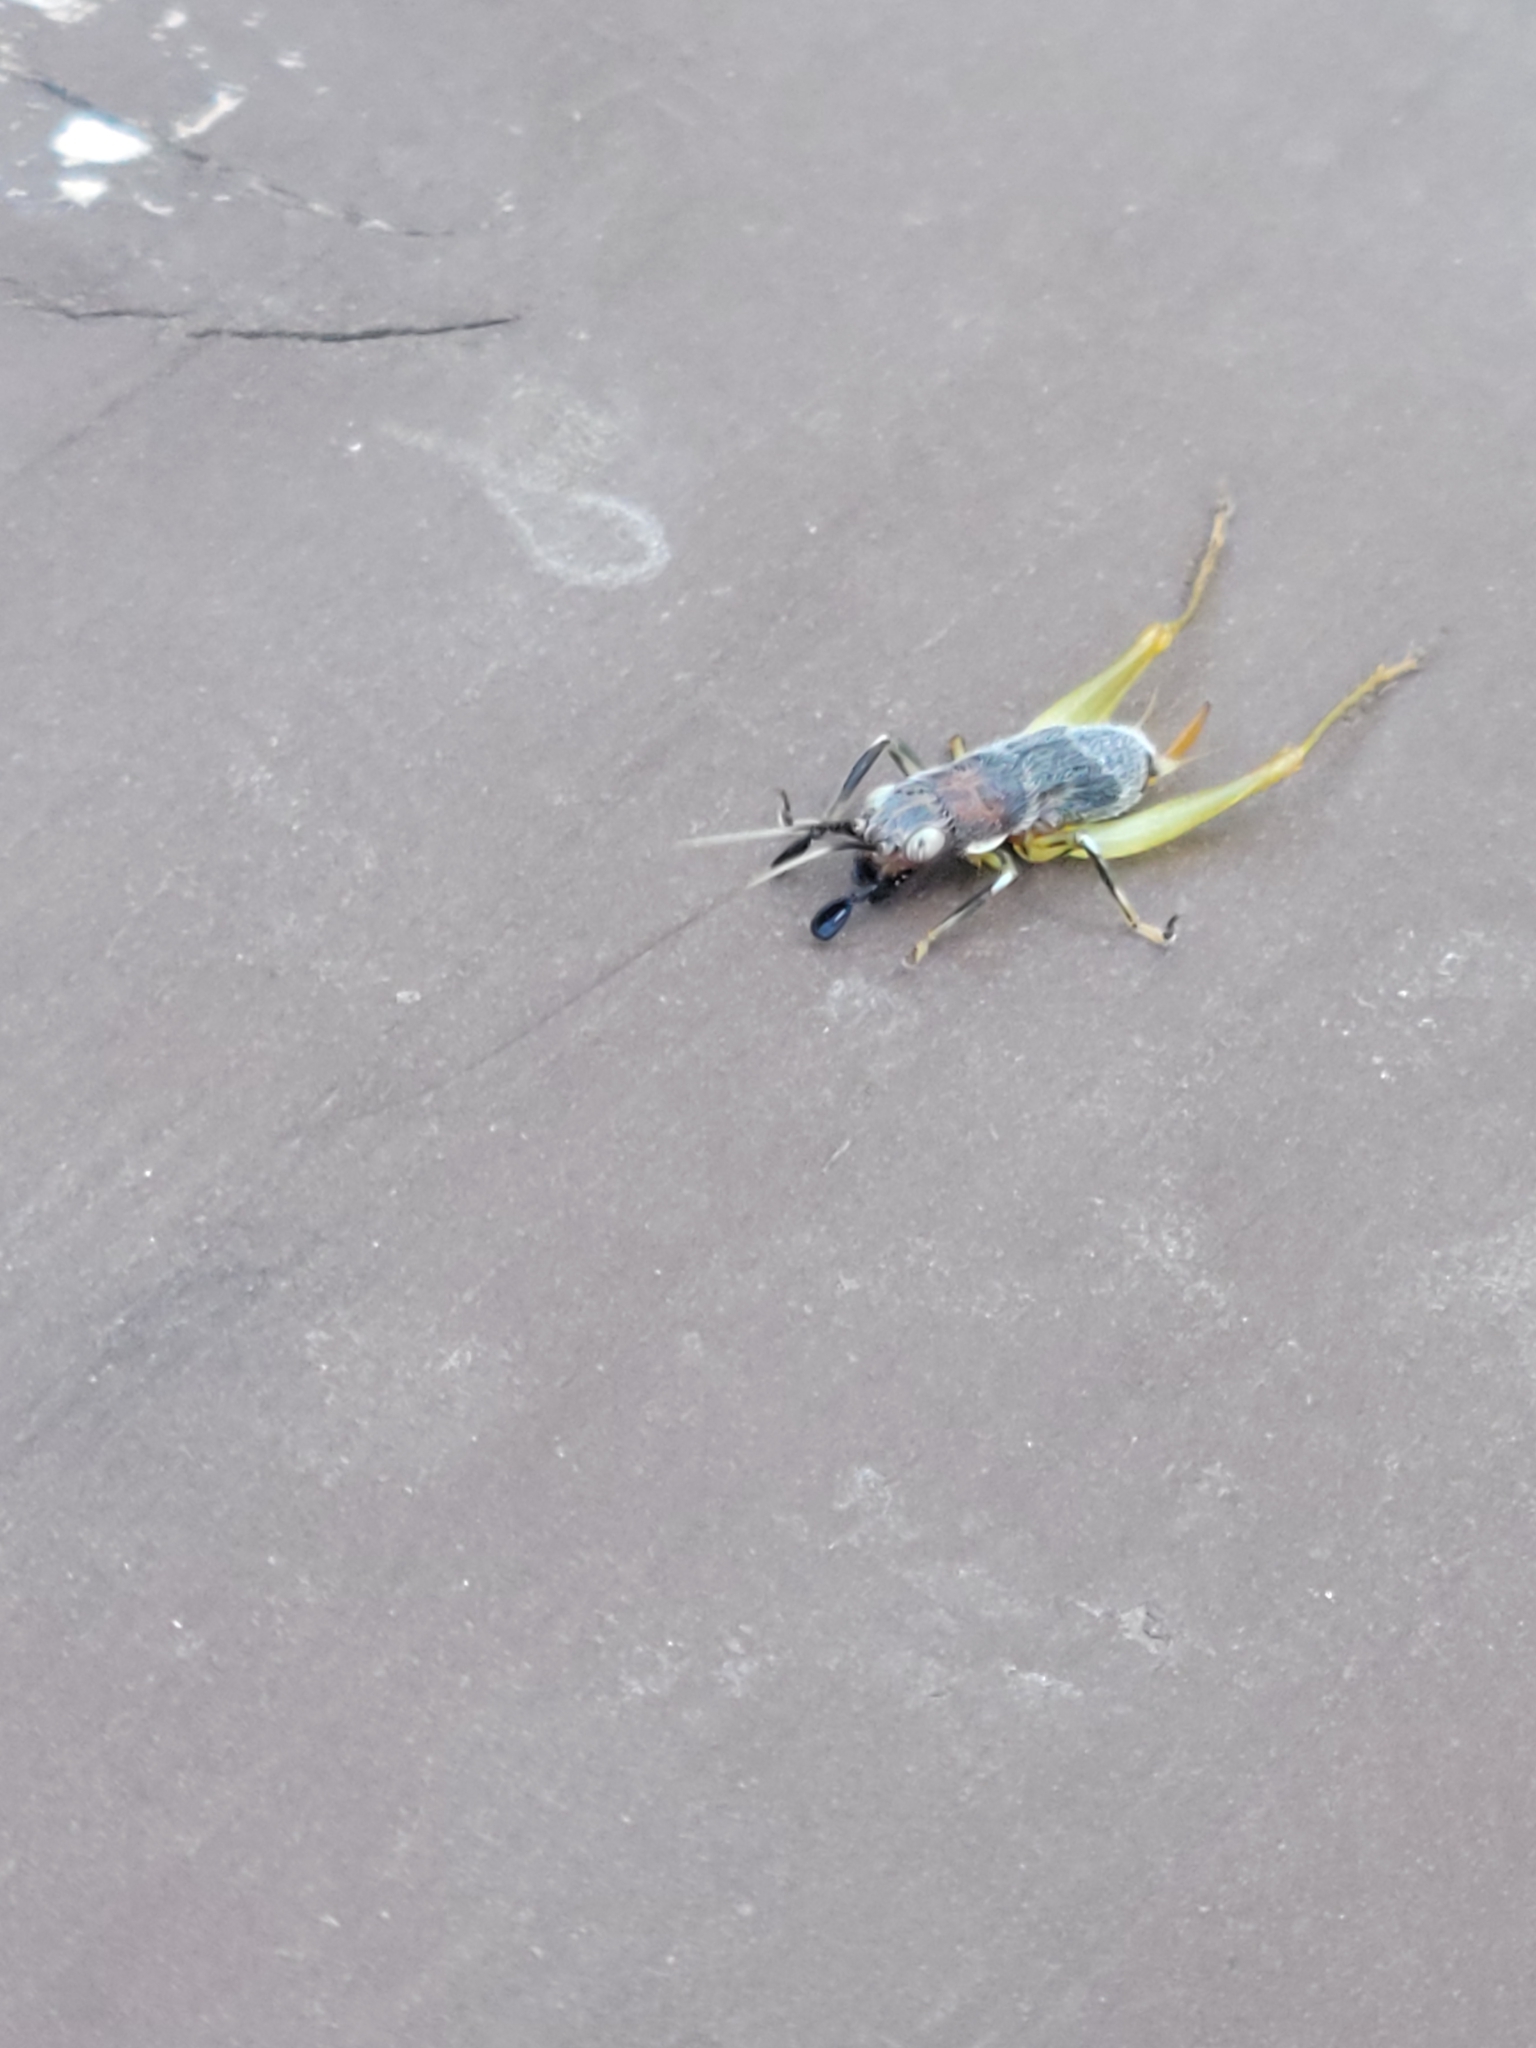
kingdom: Animalia
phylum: Arthropoda
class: Insecta
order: Orthoptera
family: Trigonidiidae
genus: Phyllopalpus
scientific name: Phyllopalpus pulchellus
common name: Handsome trig
